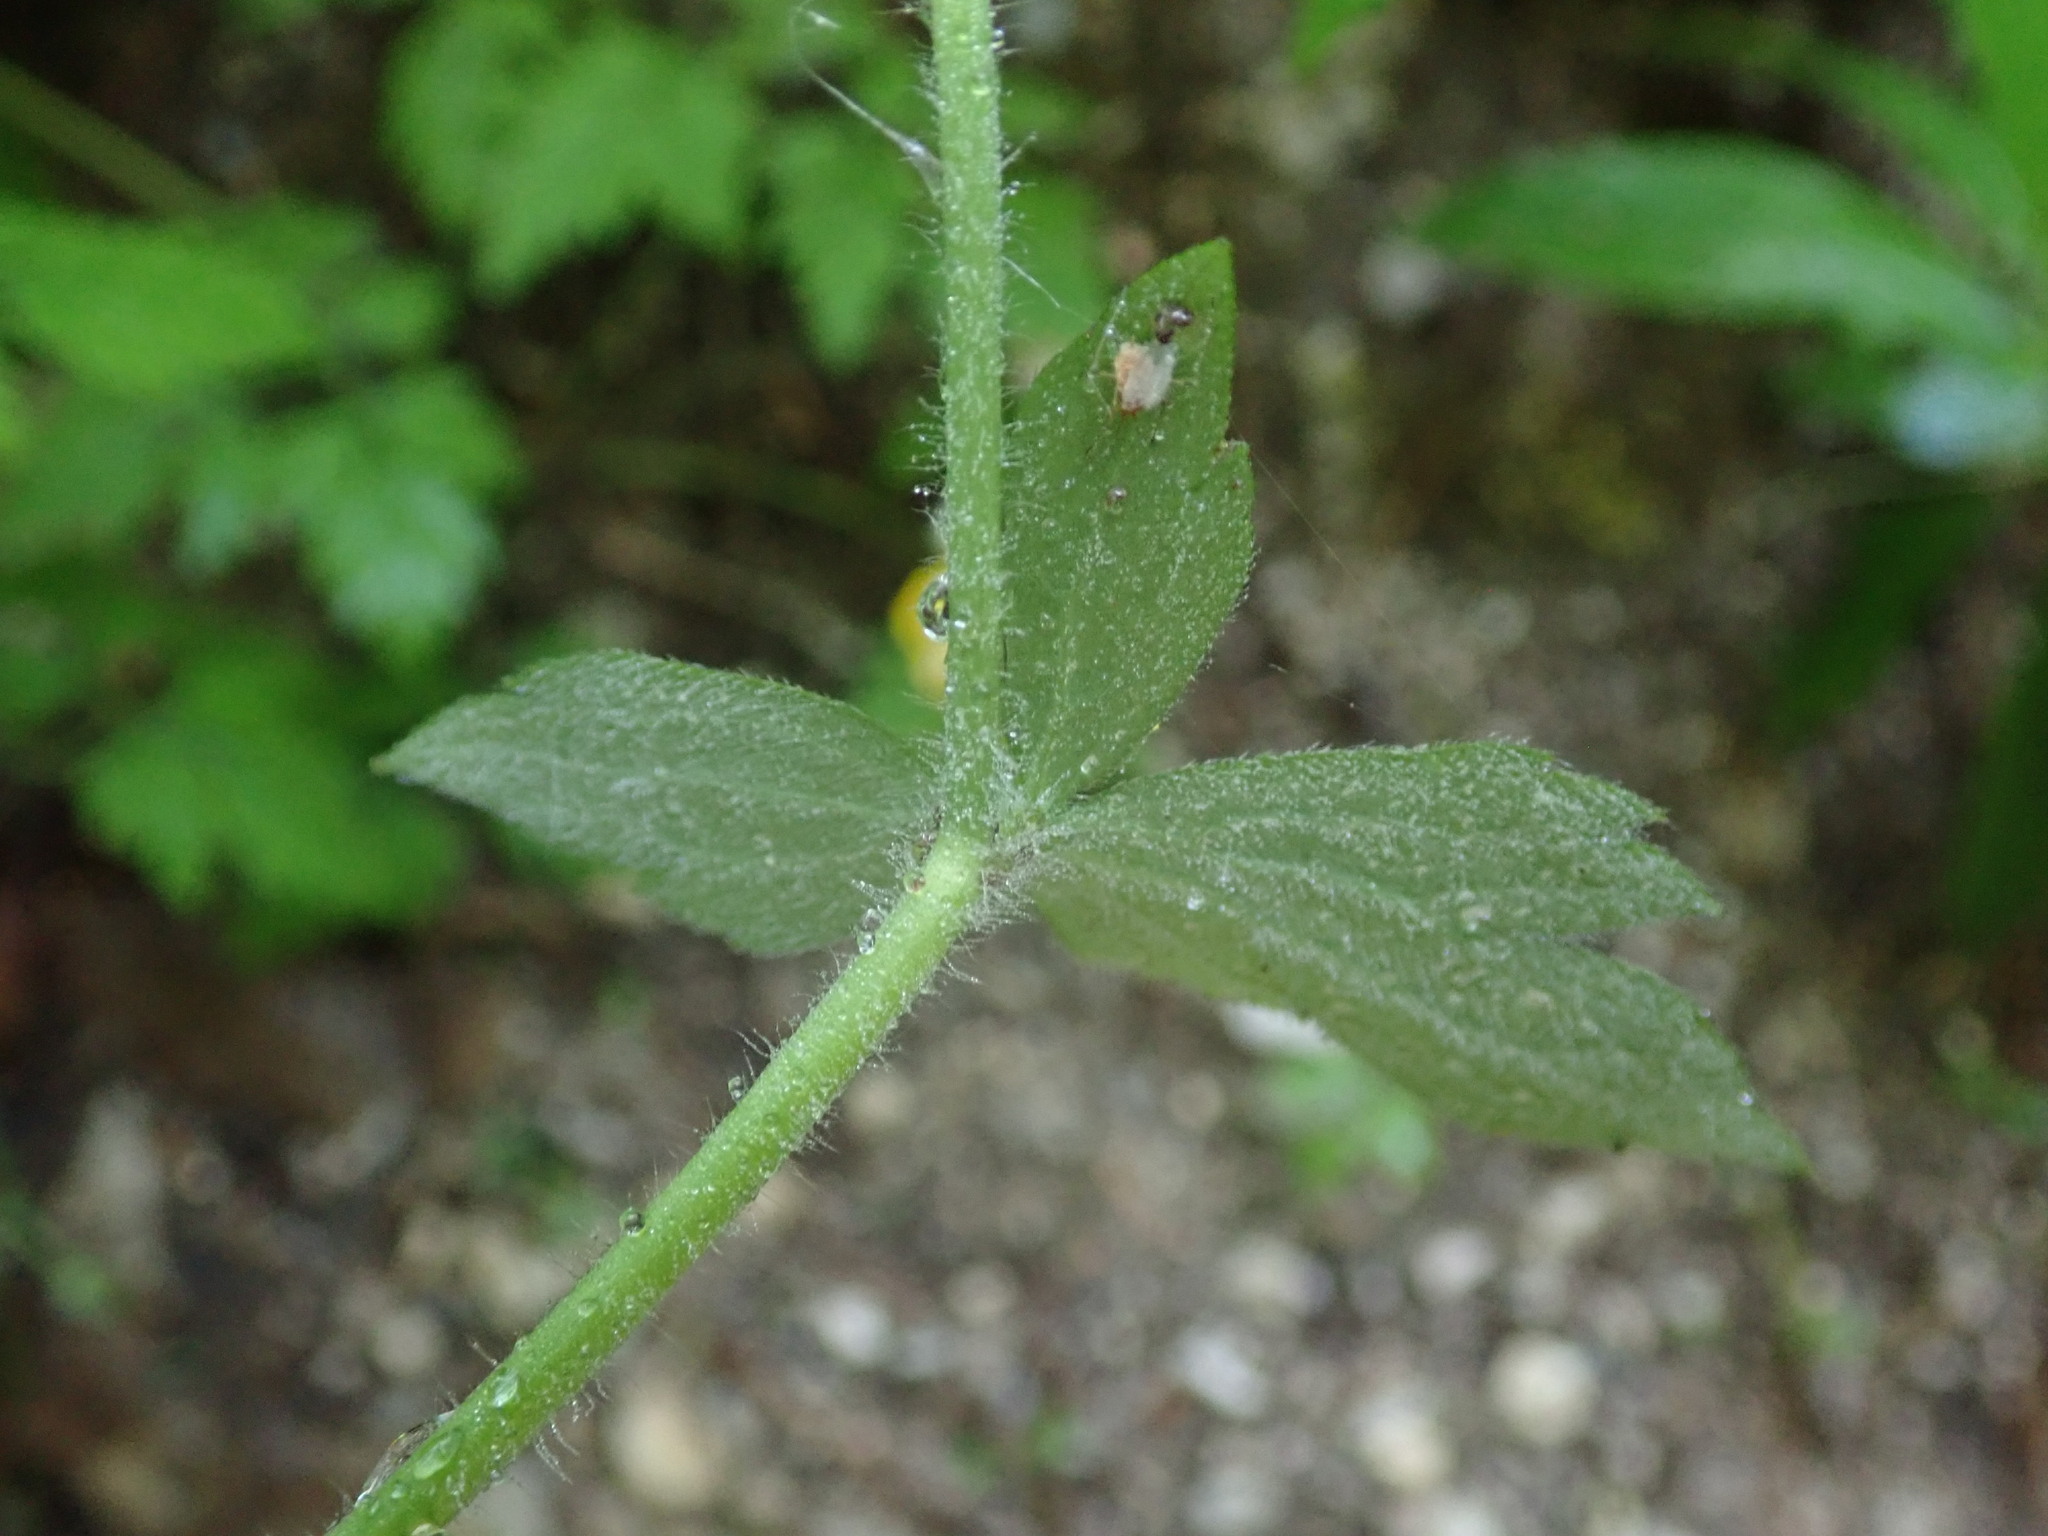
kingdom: Plantae
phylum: Tracheophyta
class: Magnoliopsida
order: Ranunculales
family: Ranunculaceae
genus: Ranunculus
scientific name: Ranunculus lanuginosus
